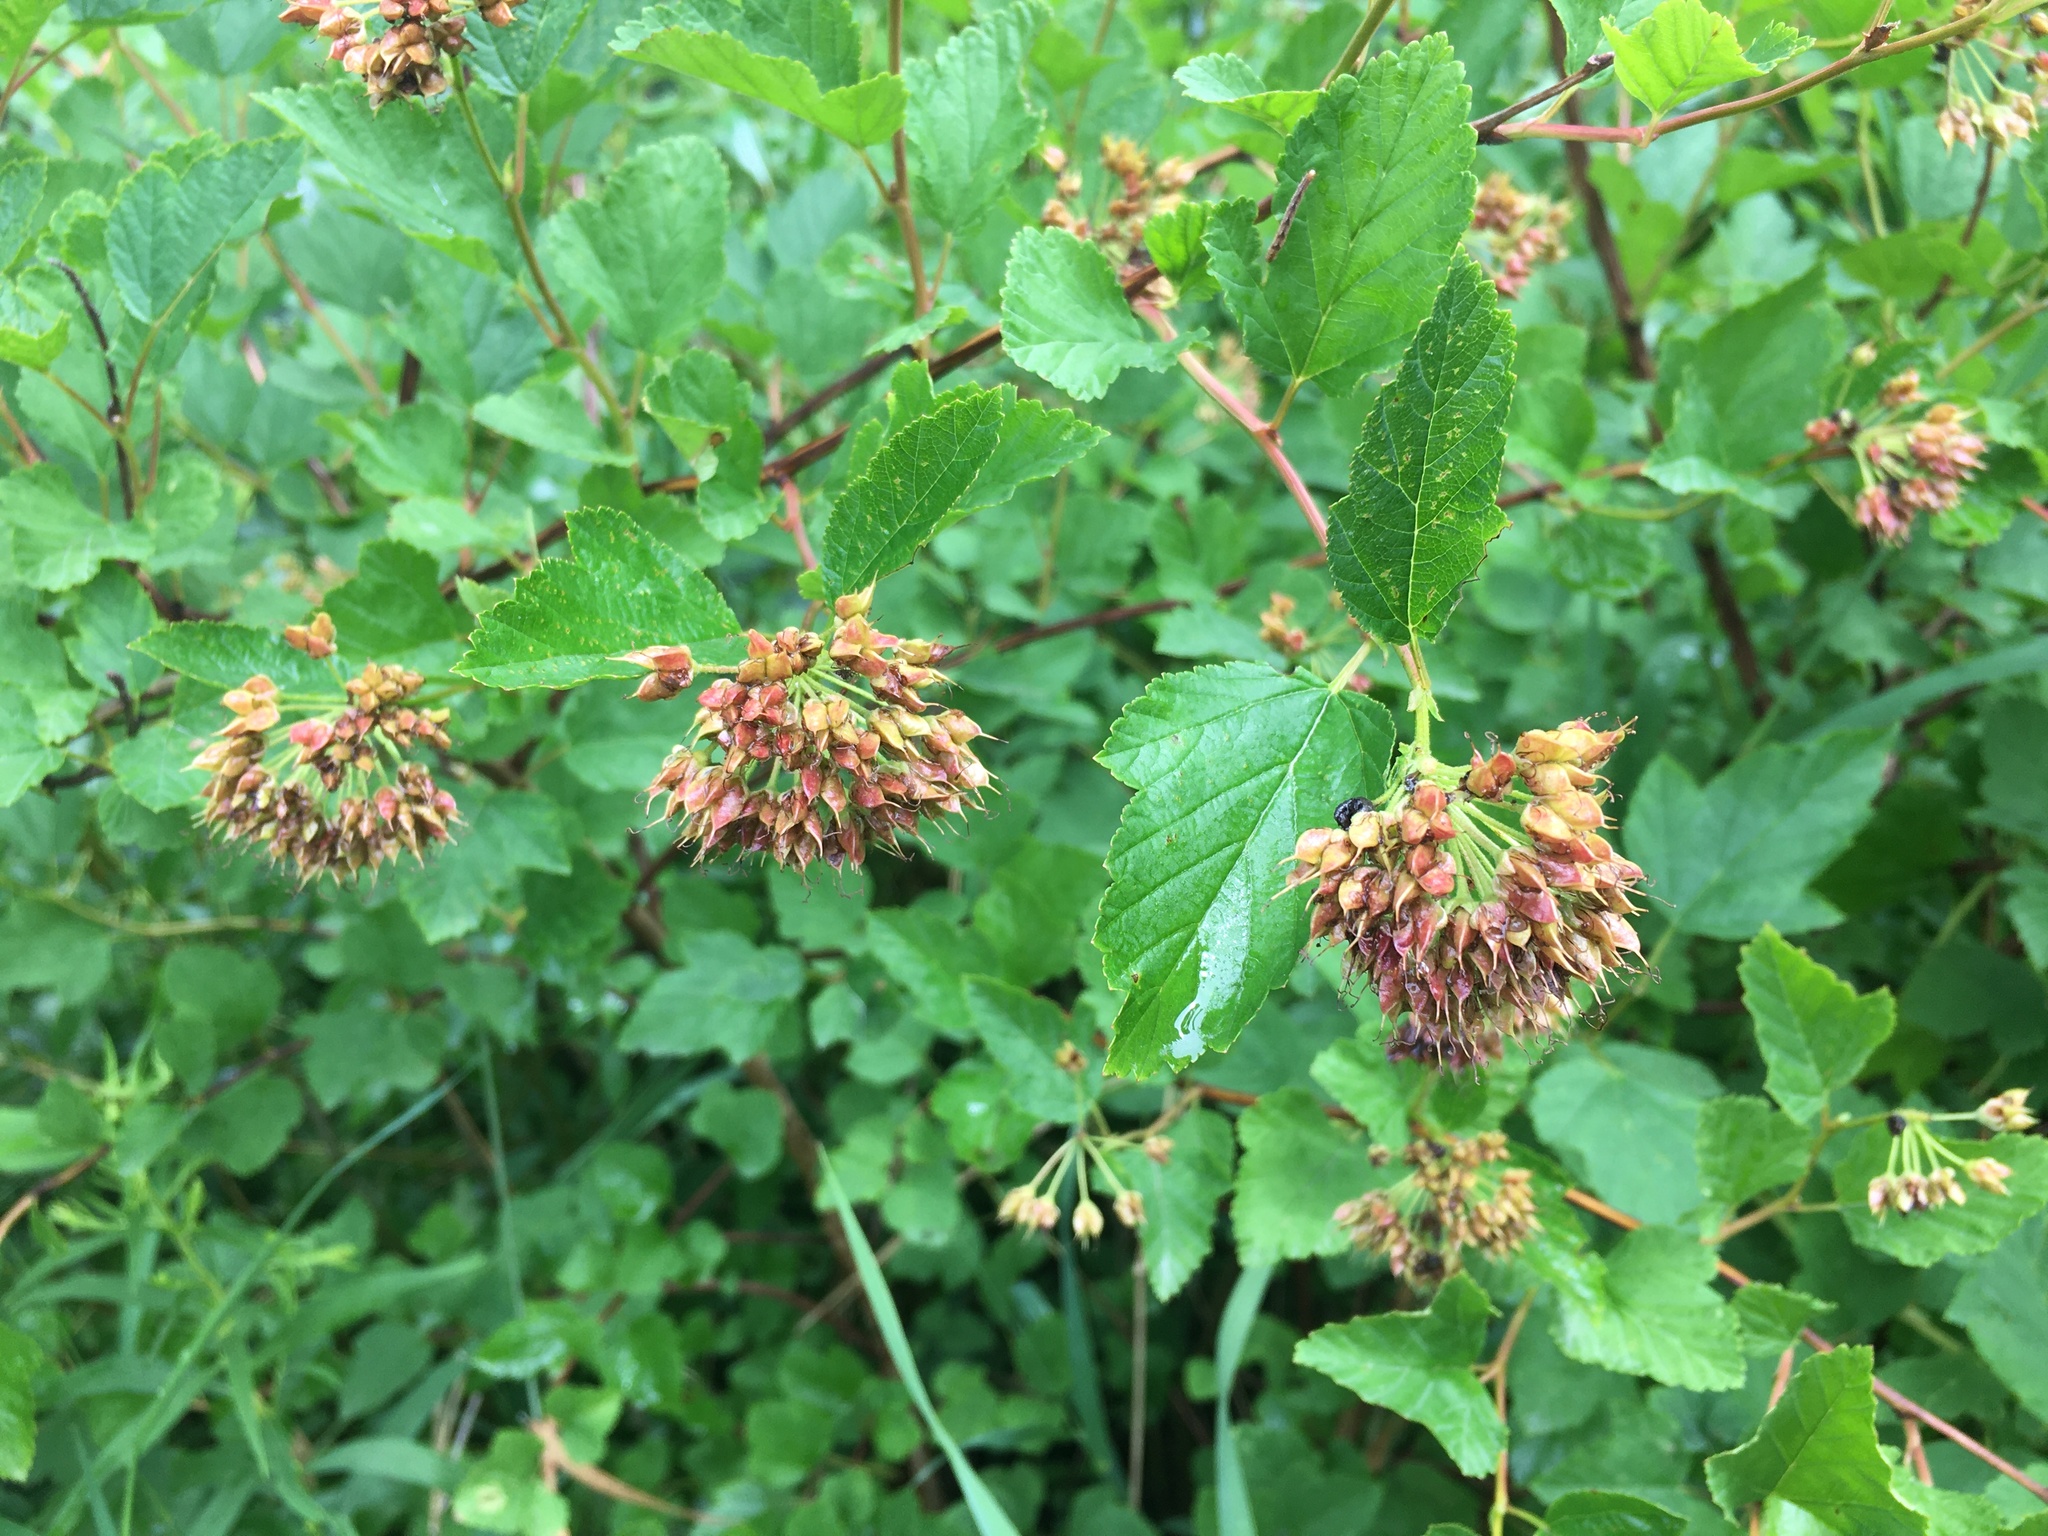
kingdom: Plantae
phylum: Tracheophyta
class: Magnoliopsida
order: Rosales
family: Rosaceae
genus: Physocarpus
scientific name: Physocarpus opulifolius
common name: Ninebark
